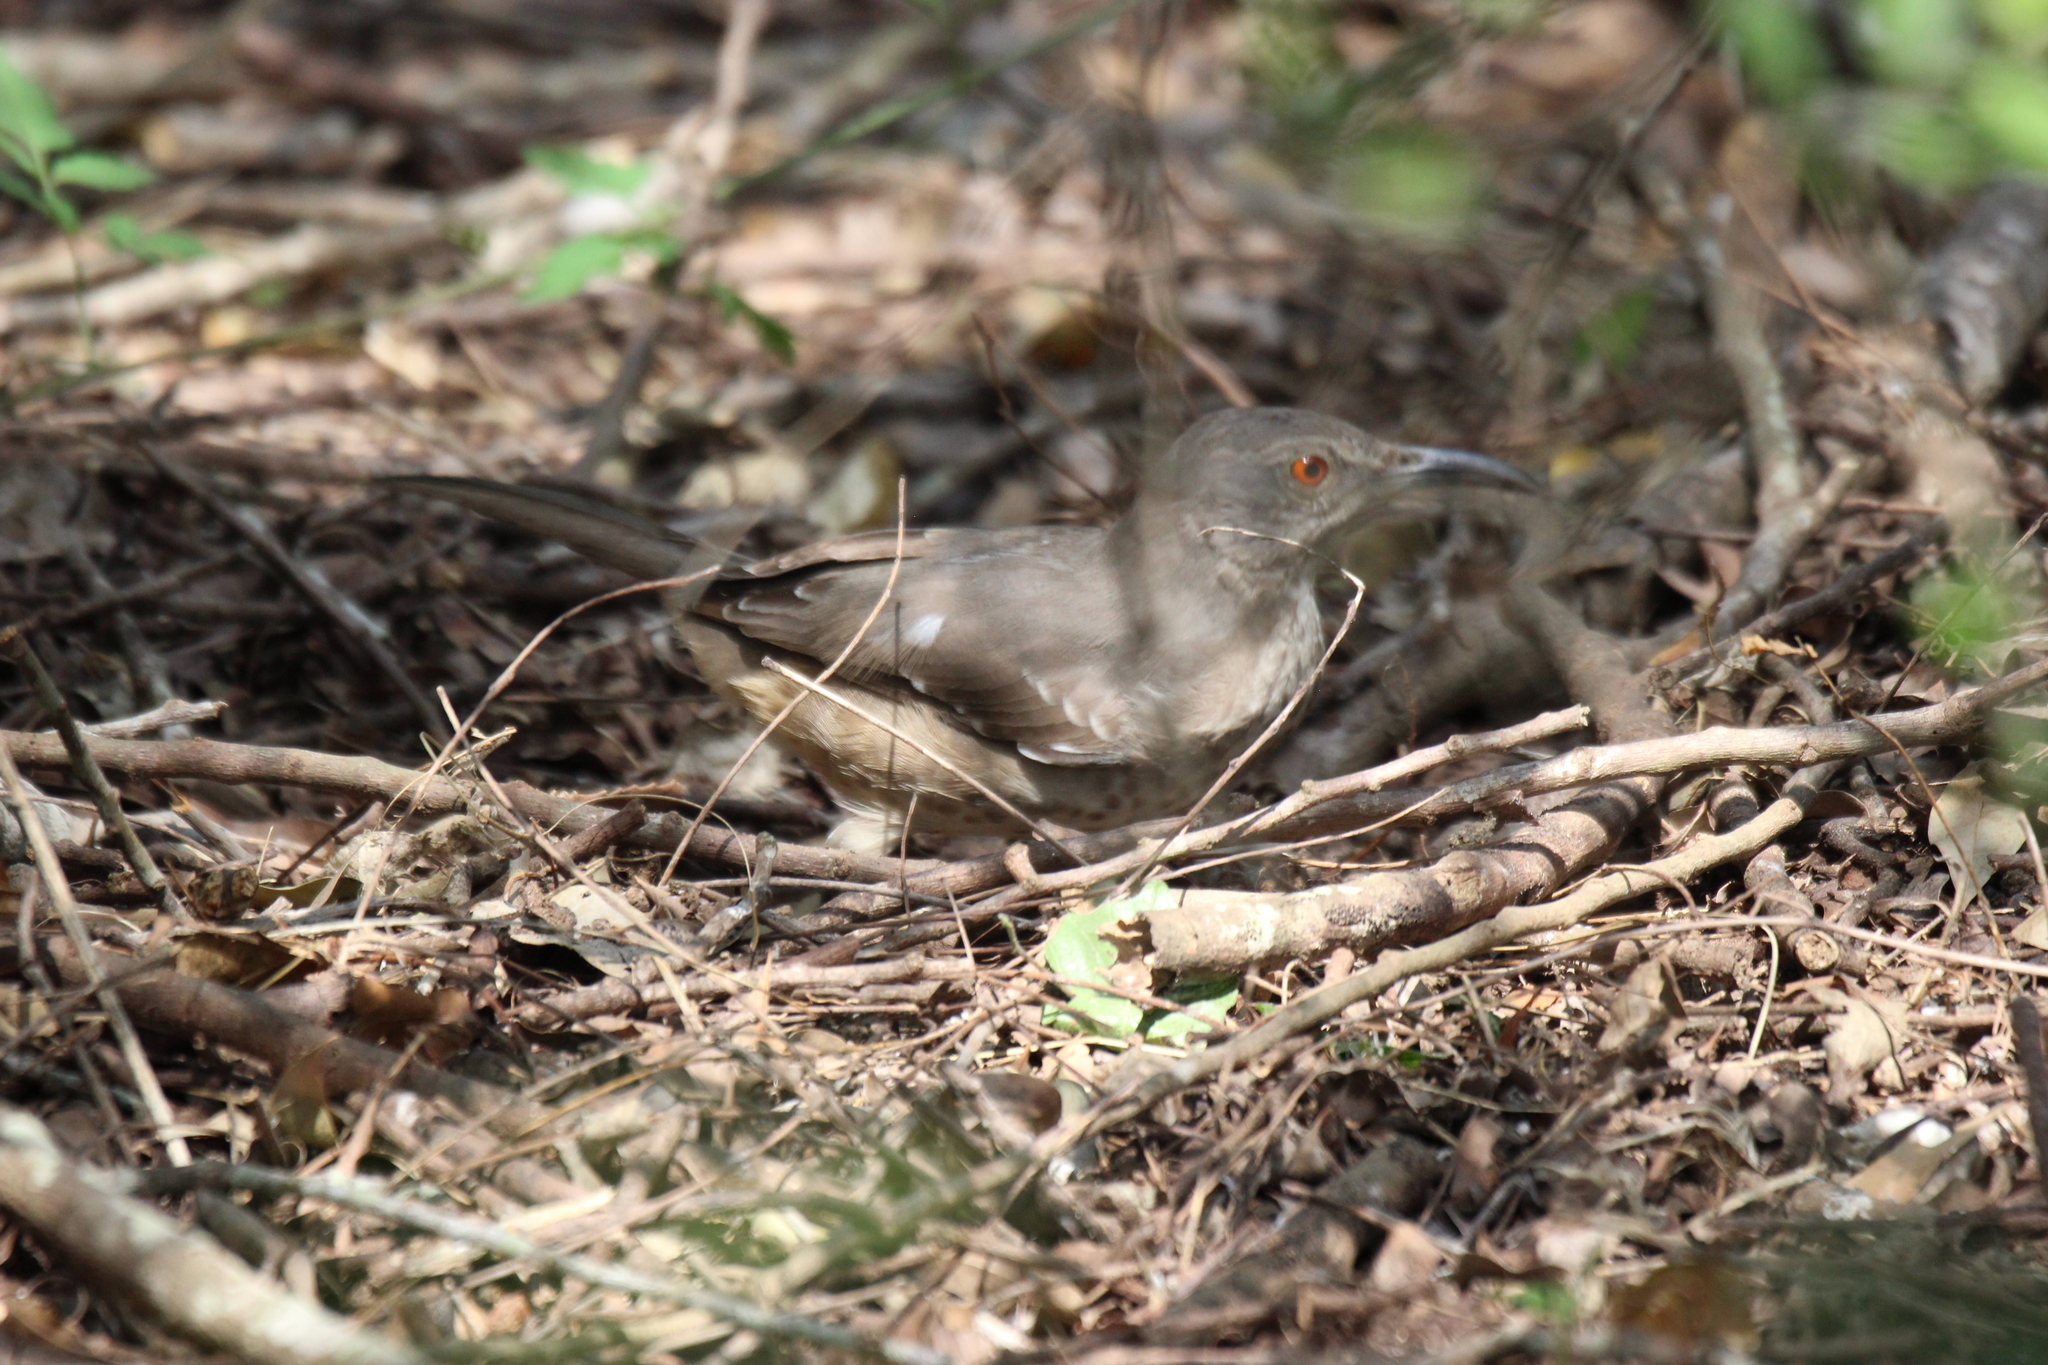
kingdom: Animalia
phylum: Chordata
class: Aves
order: Passeriformes
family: Mimidae
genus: Toxostoma
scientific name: Toxostoma curvirostre
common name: Curve-billed thrasher
